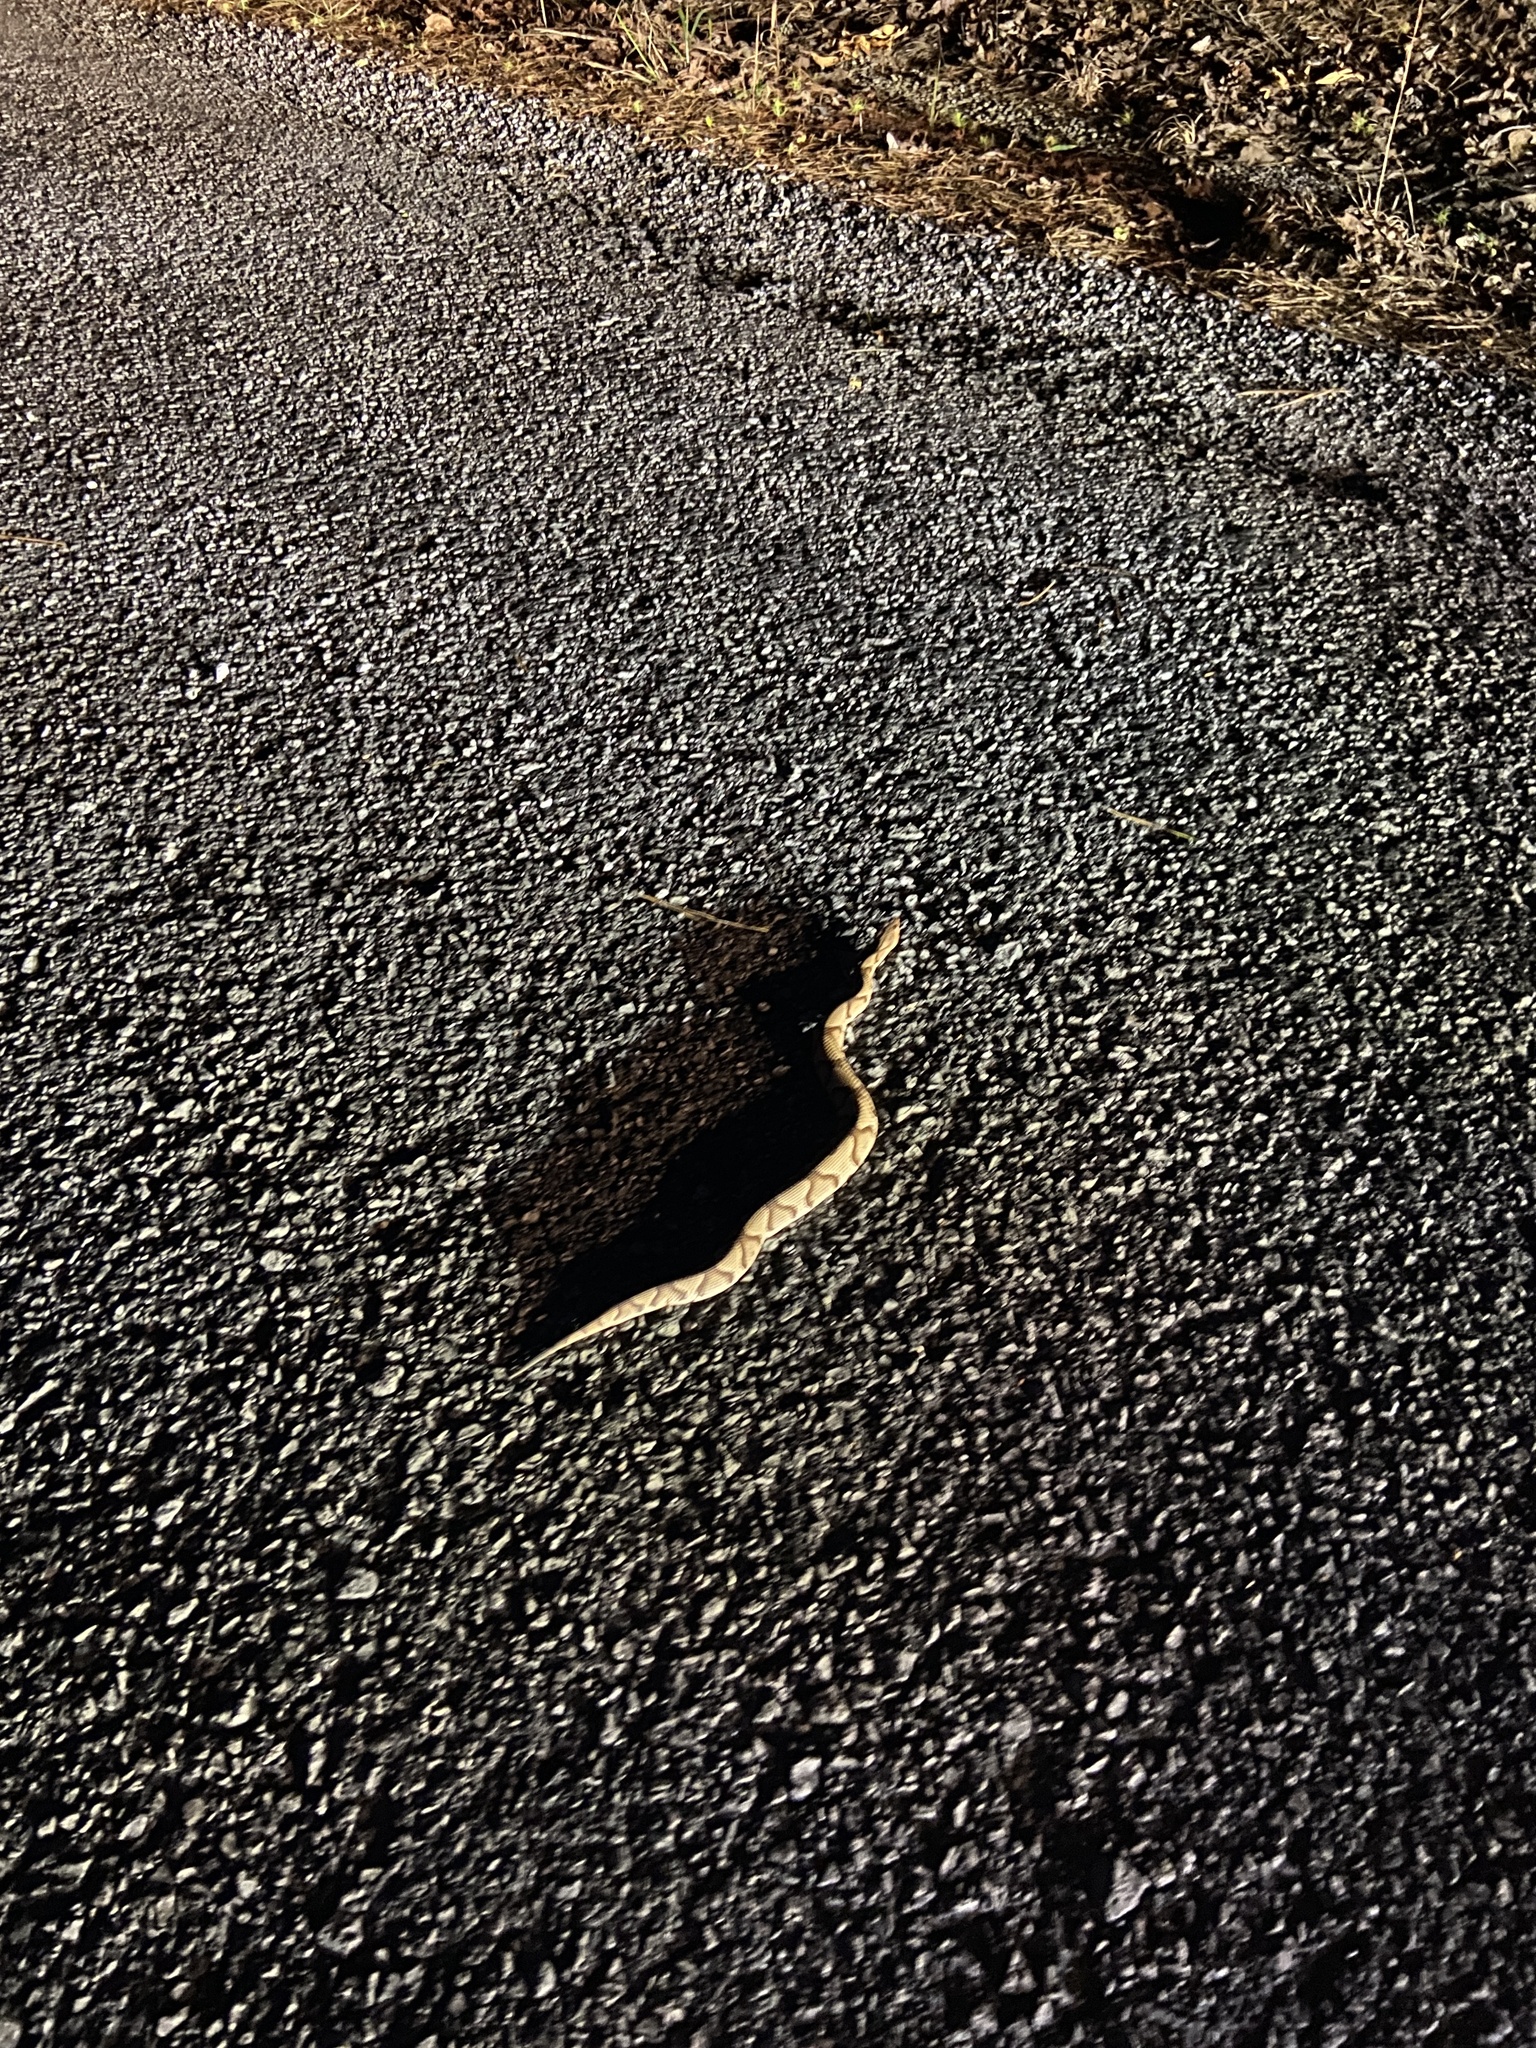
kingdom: Animalia
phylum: Chordata
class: Squamata
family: Viperidae
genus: Agkistrodon
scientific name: Agkistrodon contortrix
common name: Northern copperhead
